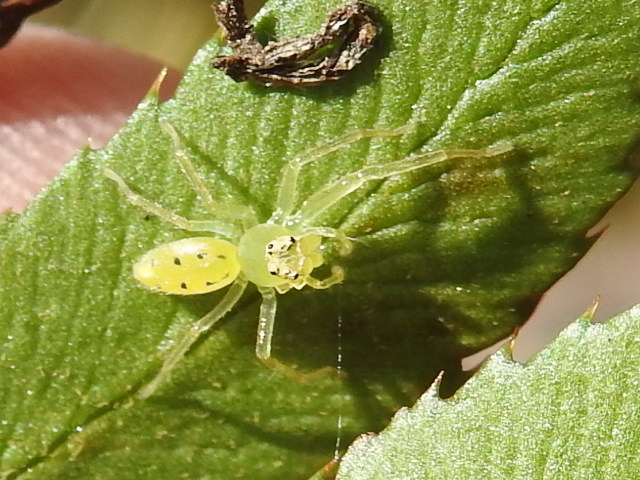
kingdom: Animalia
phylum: Arthropoda
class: Arachnida
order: Araneae
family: Salticidae
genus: Lyssomanes
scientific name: Lyssomanes viridis
